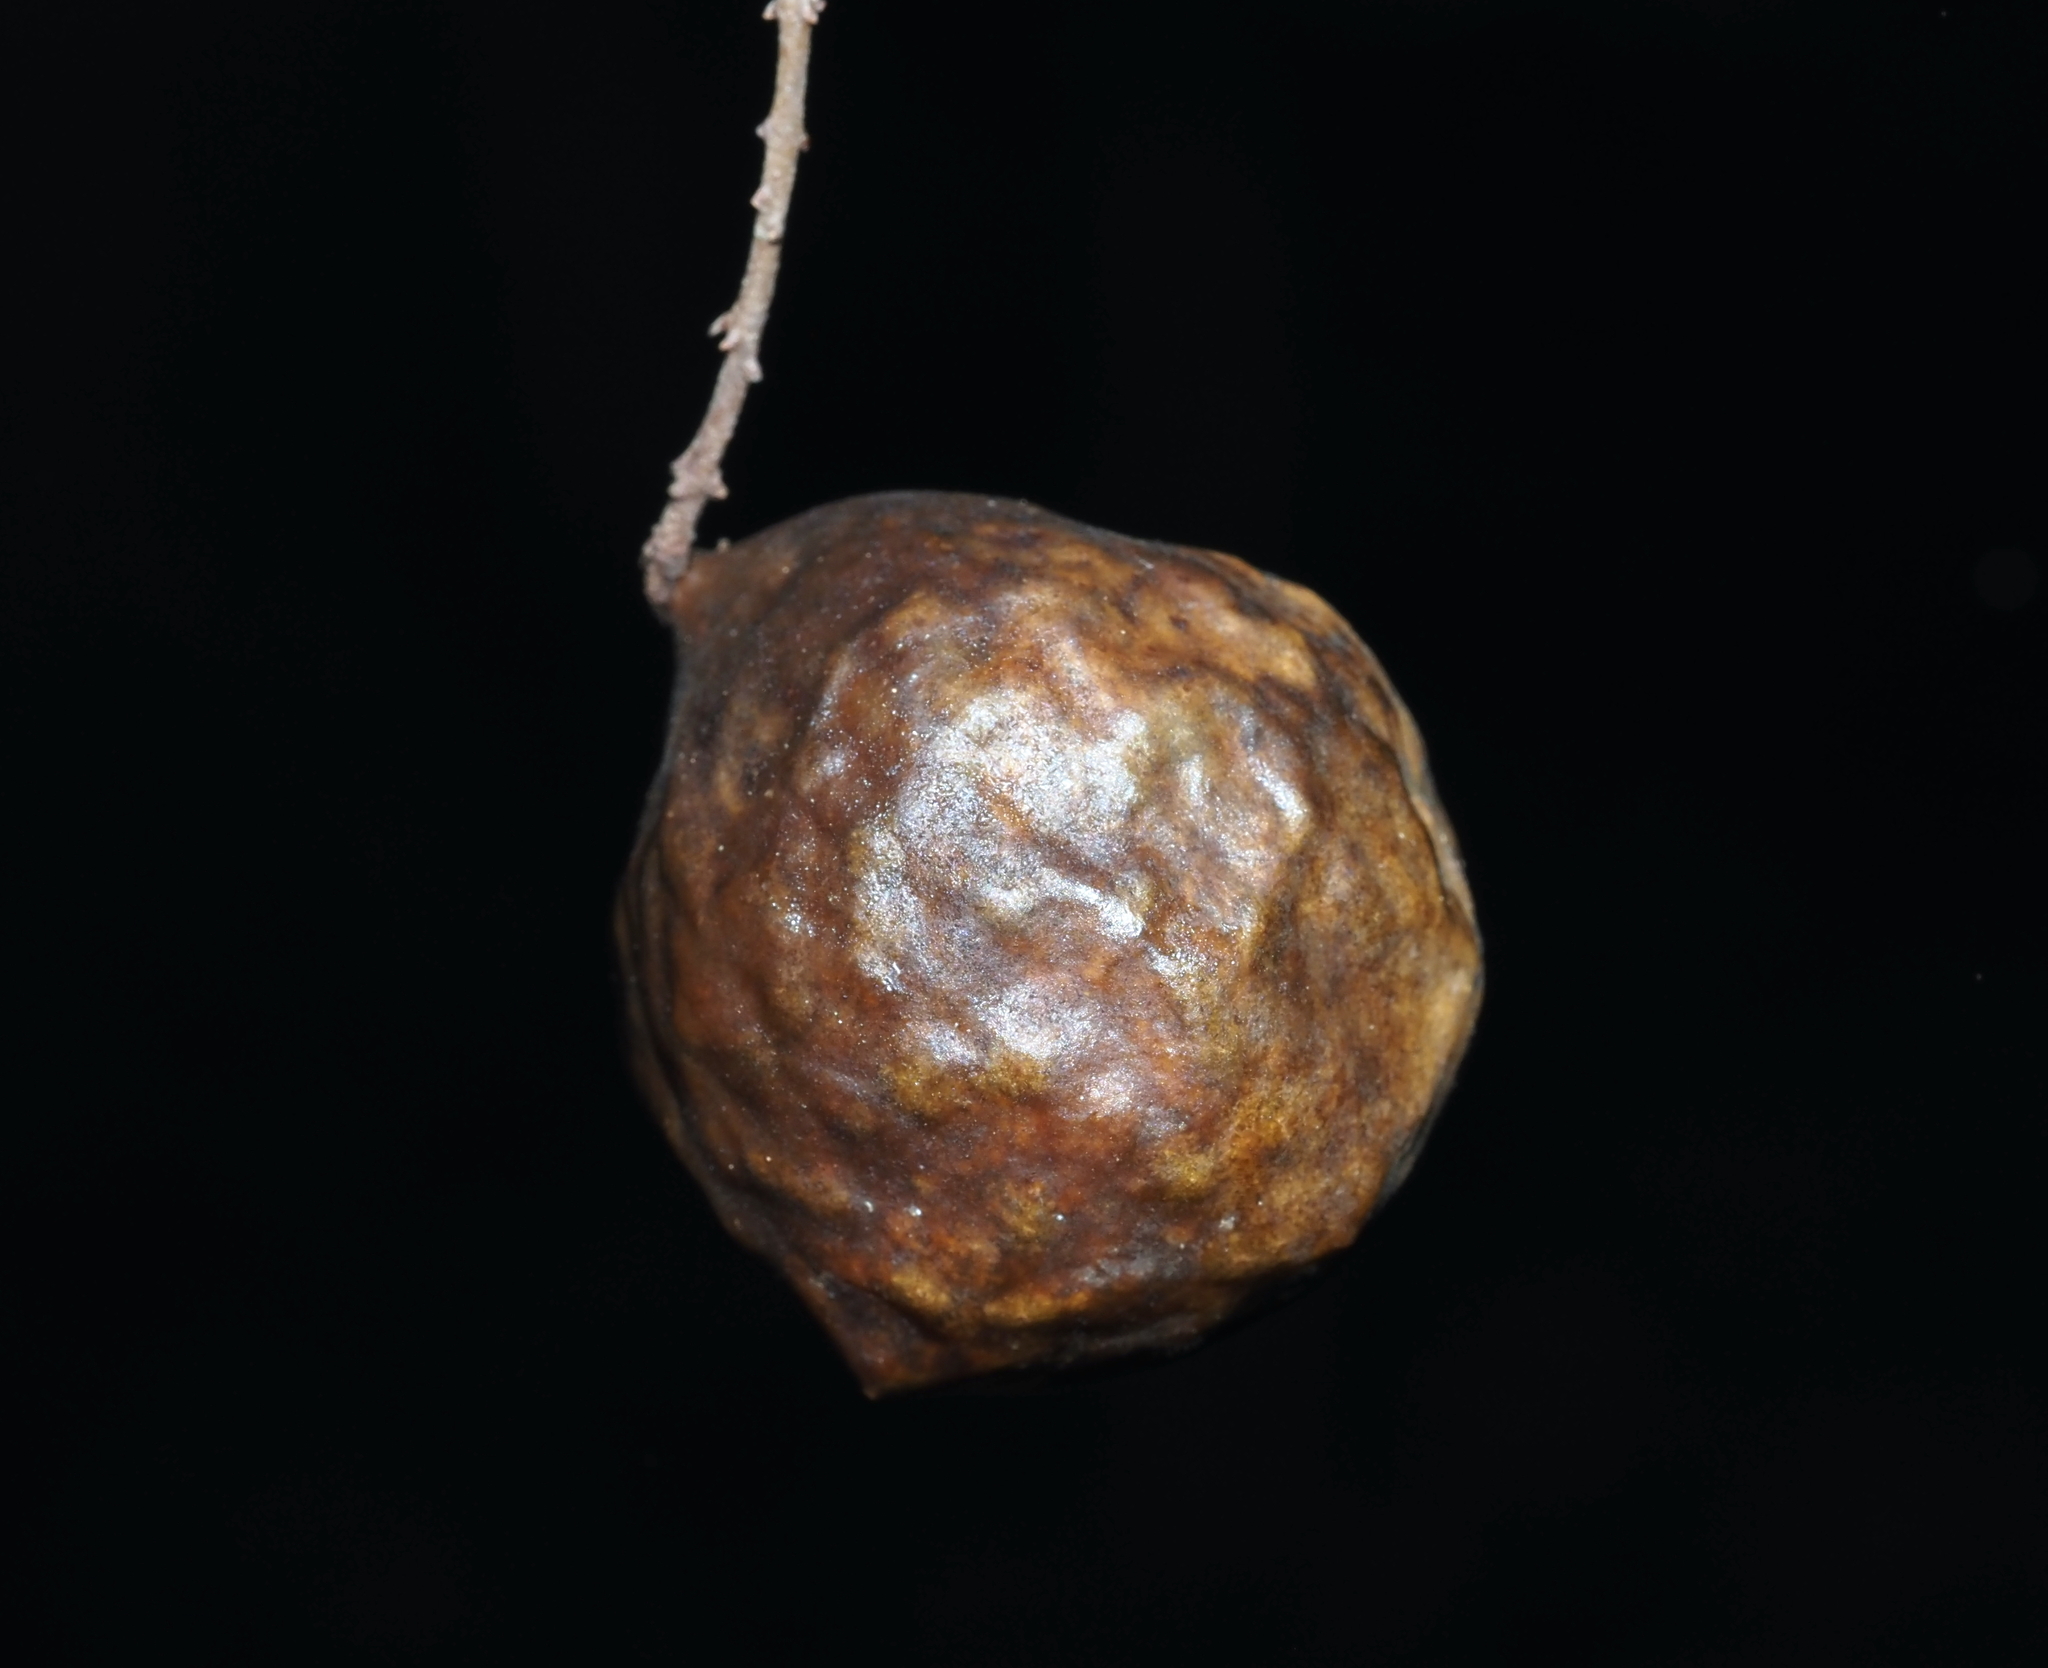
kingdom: Animalia
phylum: Arthropoda
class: Insecta
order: Hymenoptera
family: Cynipidae
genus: Amphibolips
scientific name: Amphibolips
